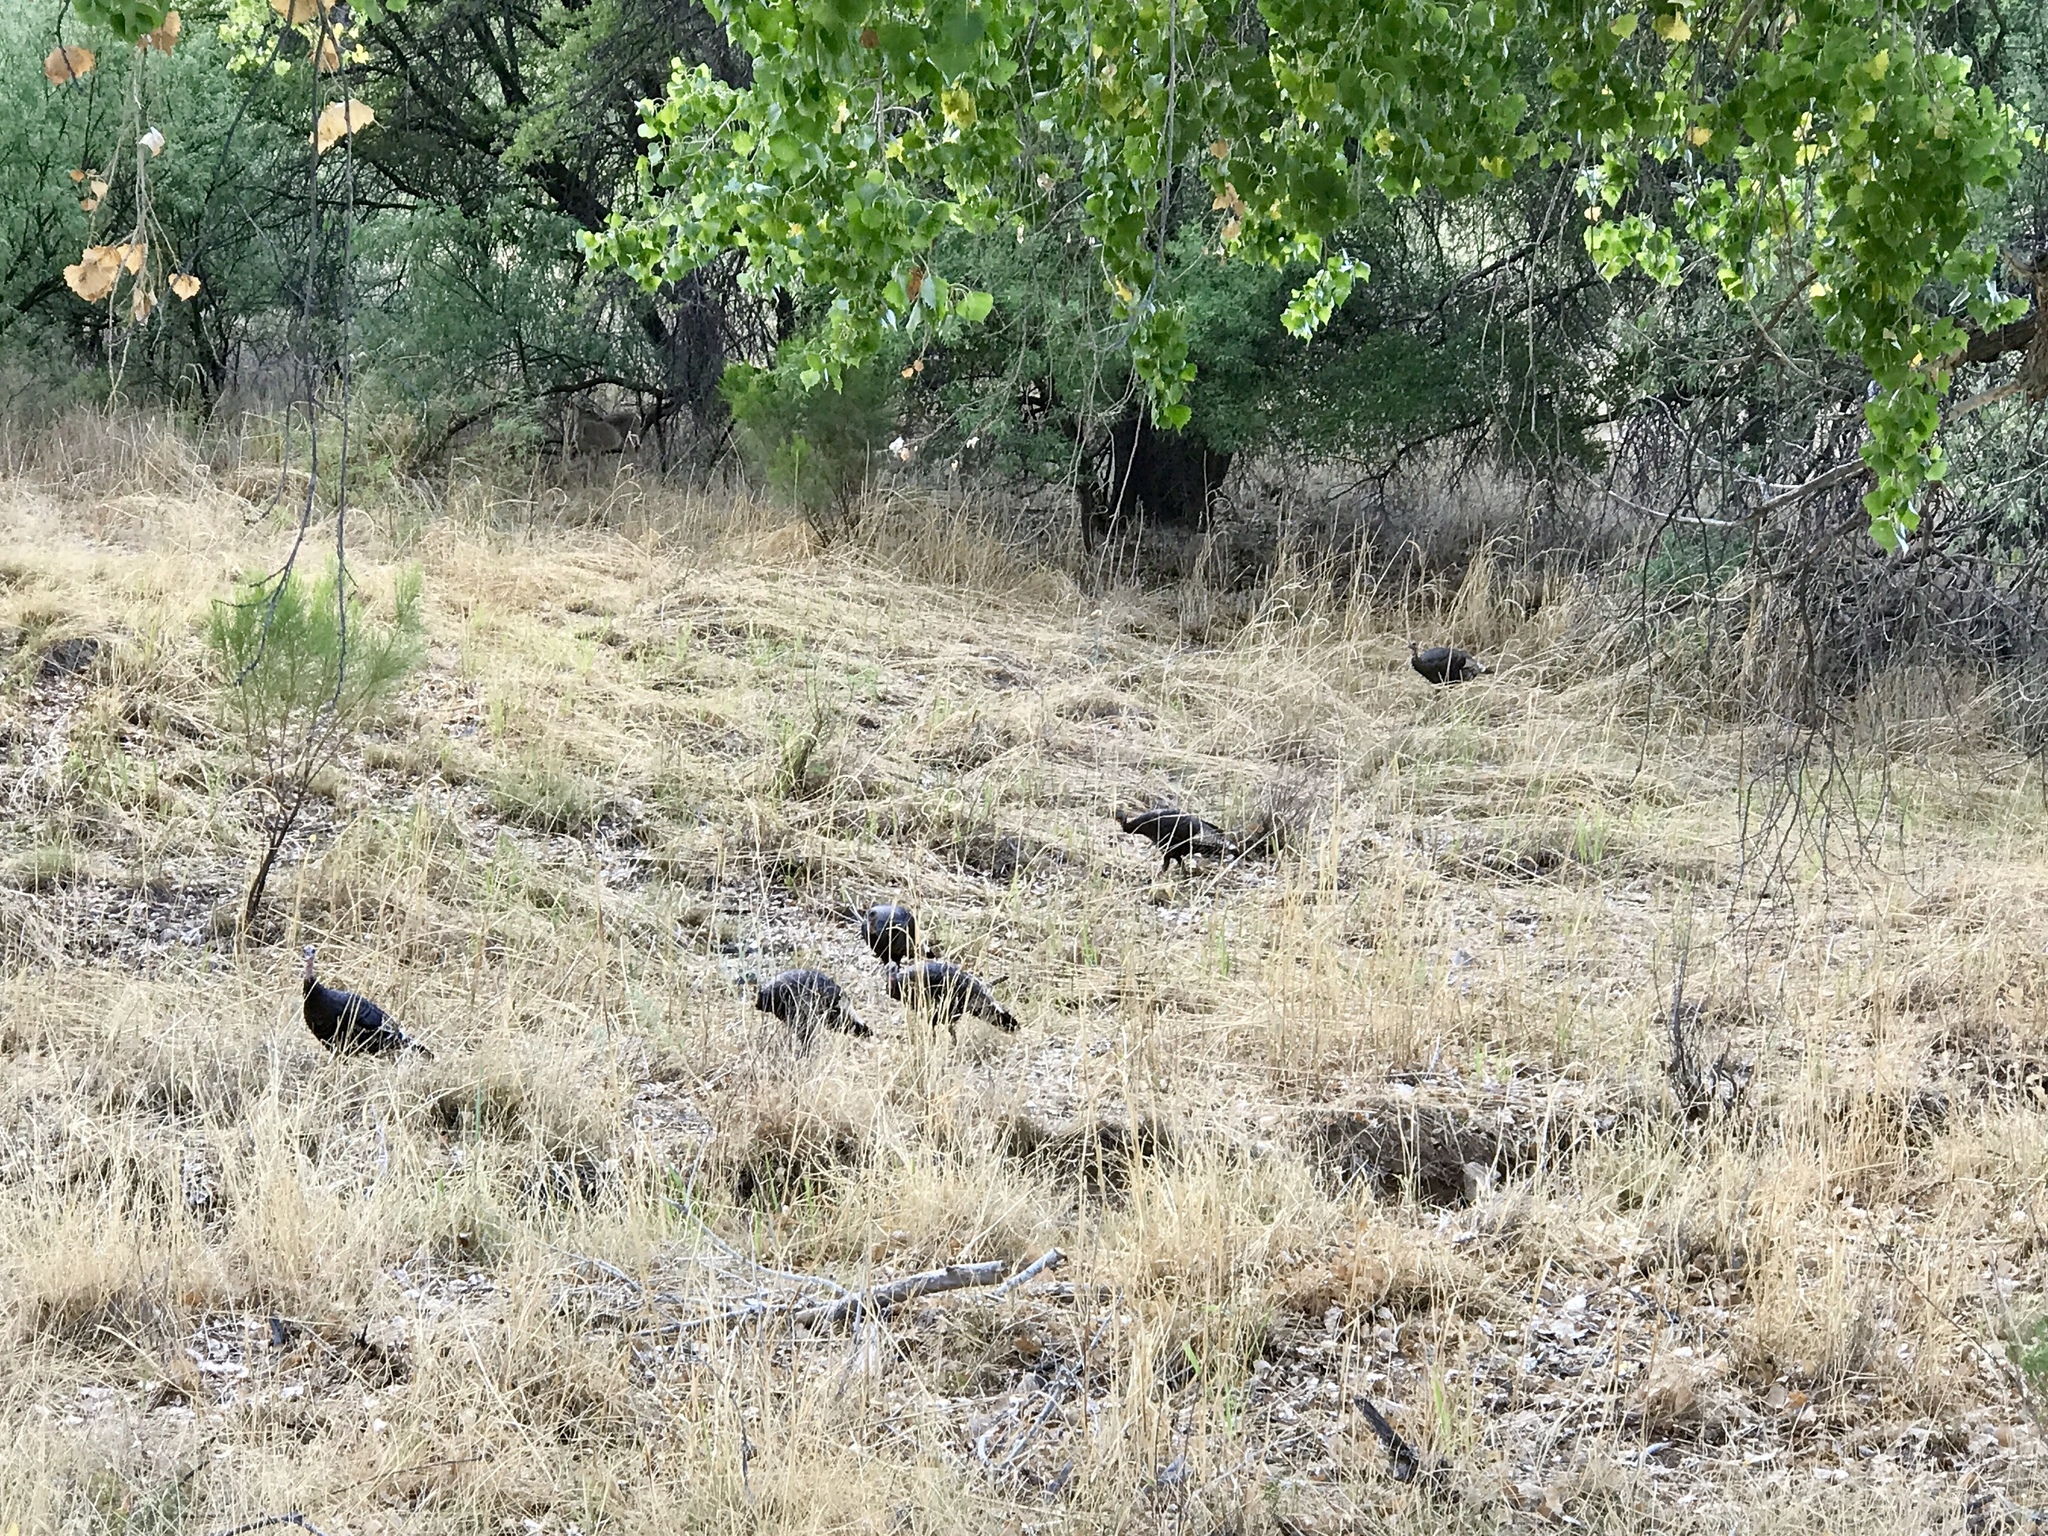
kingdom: Animalia
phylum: Chordata
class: Aves
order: Galliformes
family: Phasianidae
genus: Meleagris
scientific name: Meleagris gallopavo
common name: Wild turkey
